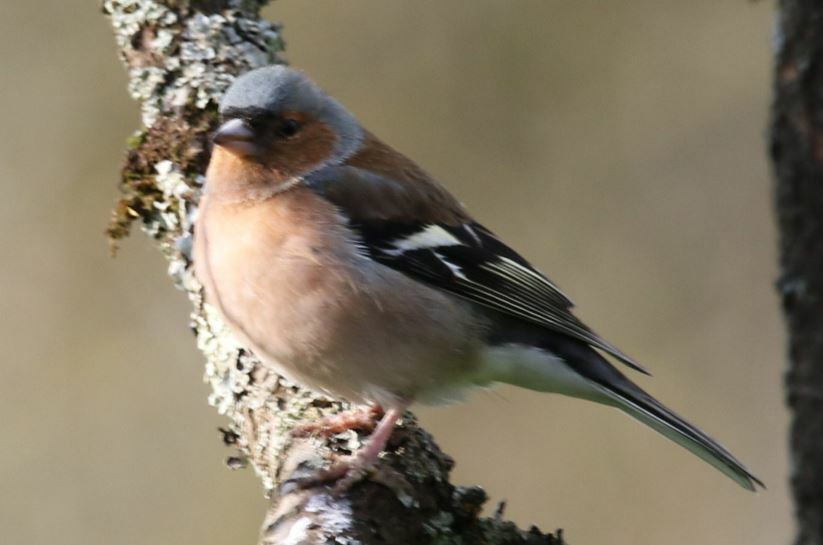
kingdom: Animalia
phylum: Chordata
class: Aves
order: Passeriformes
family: Fringillidae
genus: Fringilla
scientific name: Fringilla coelebs
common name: Common chaffinch
